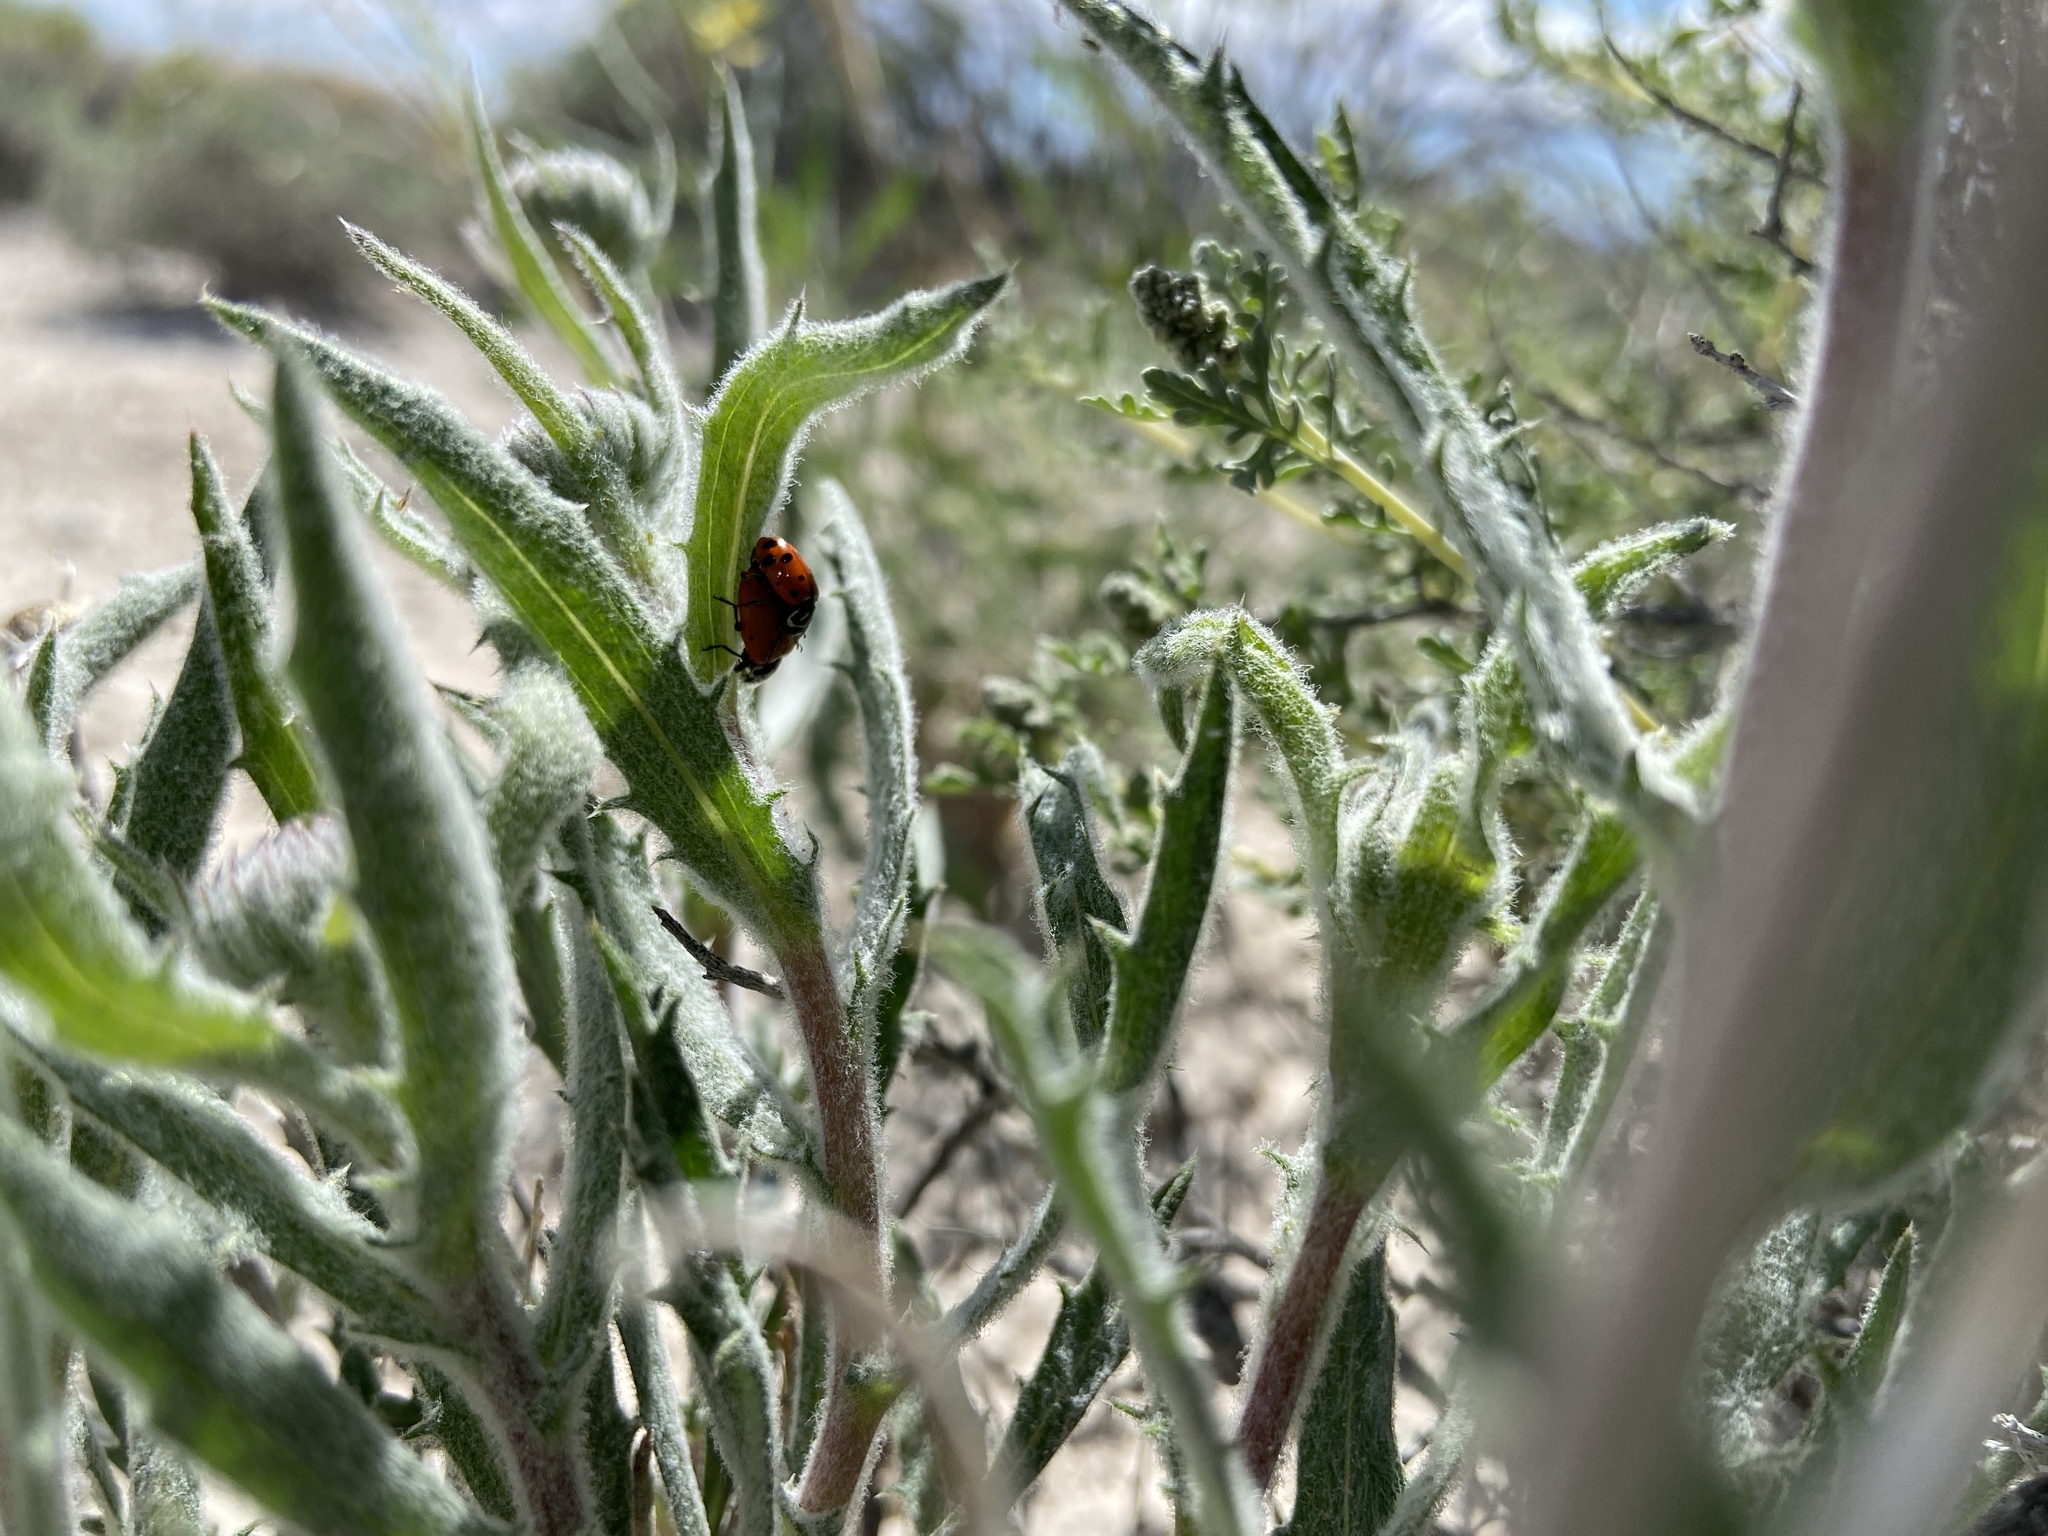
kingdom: Plantae
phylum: Tracheophyta
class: Magnoliopsida
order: Asterales
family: Asteraceae
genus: Xylorhiza
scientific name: Xylorhiza tortifolia
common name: Hurt-leaf woody-aster
